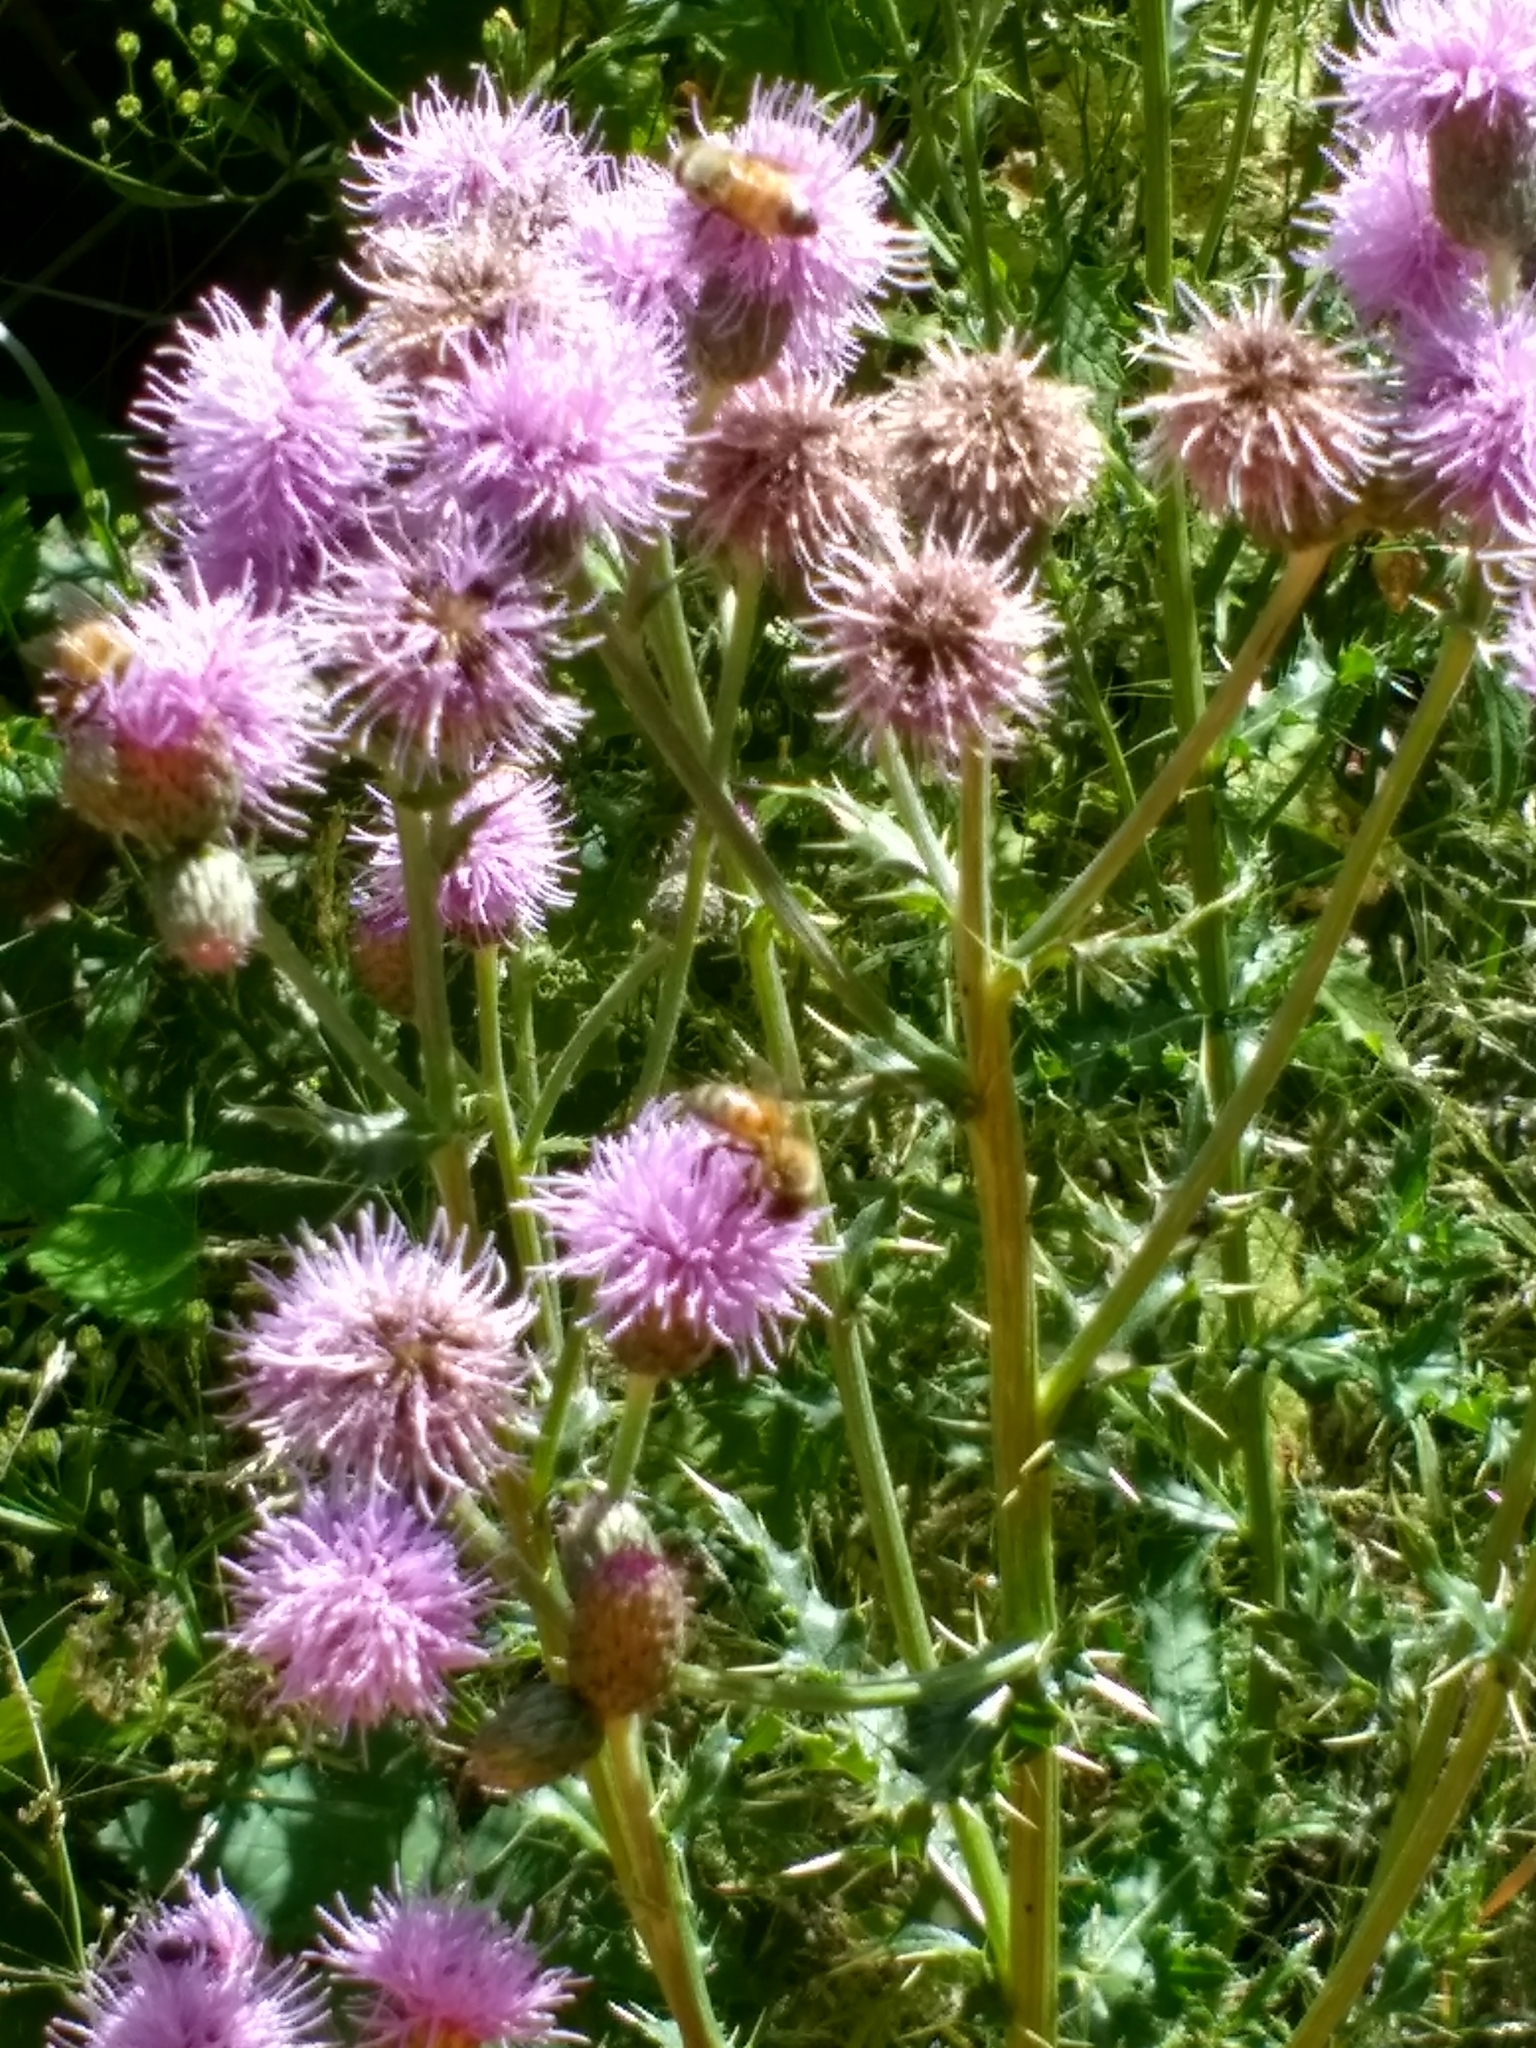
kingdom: Plantae
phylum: Tracheophyta
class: Magnoliopsida
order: Asterales
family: Asteraceae
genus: Cirsium
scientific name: Cirsium arvense
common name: Creeping thistle
